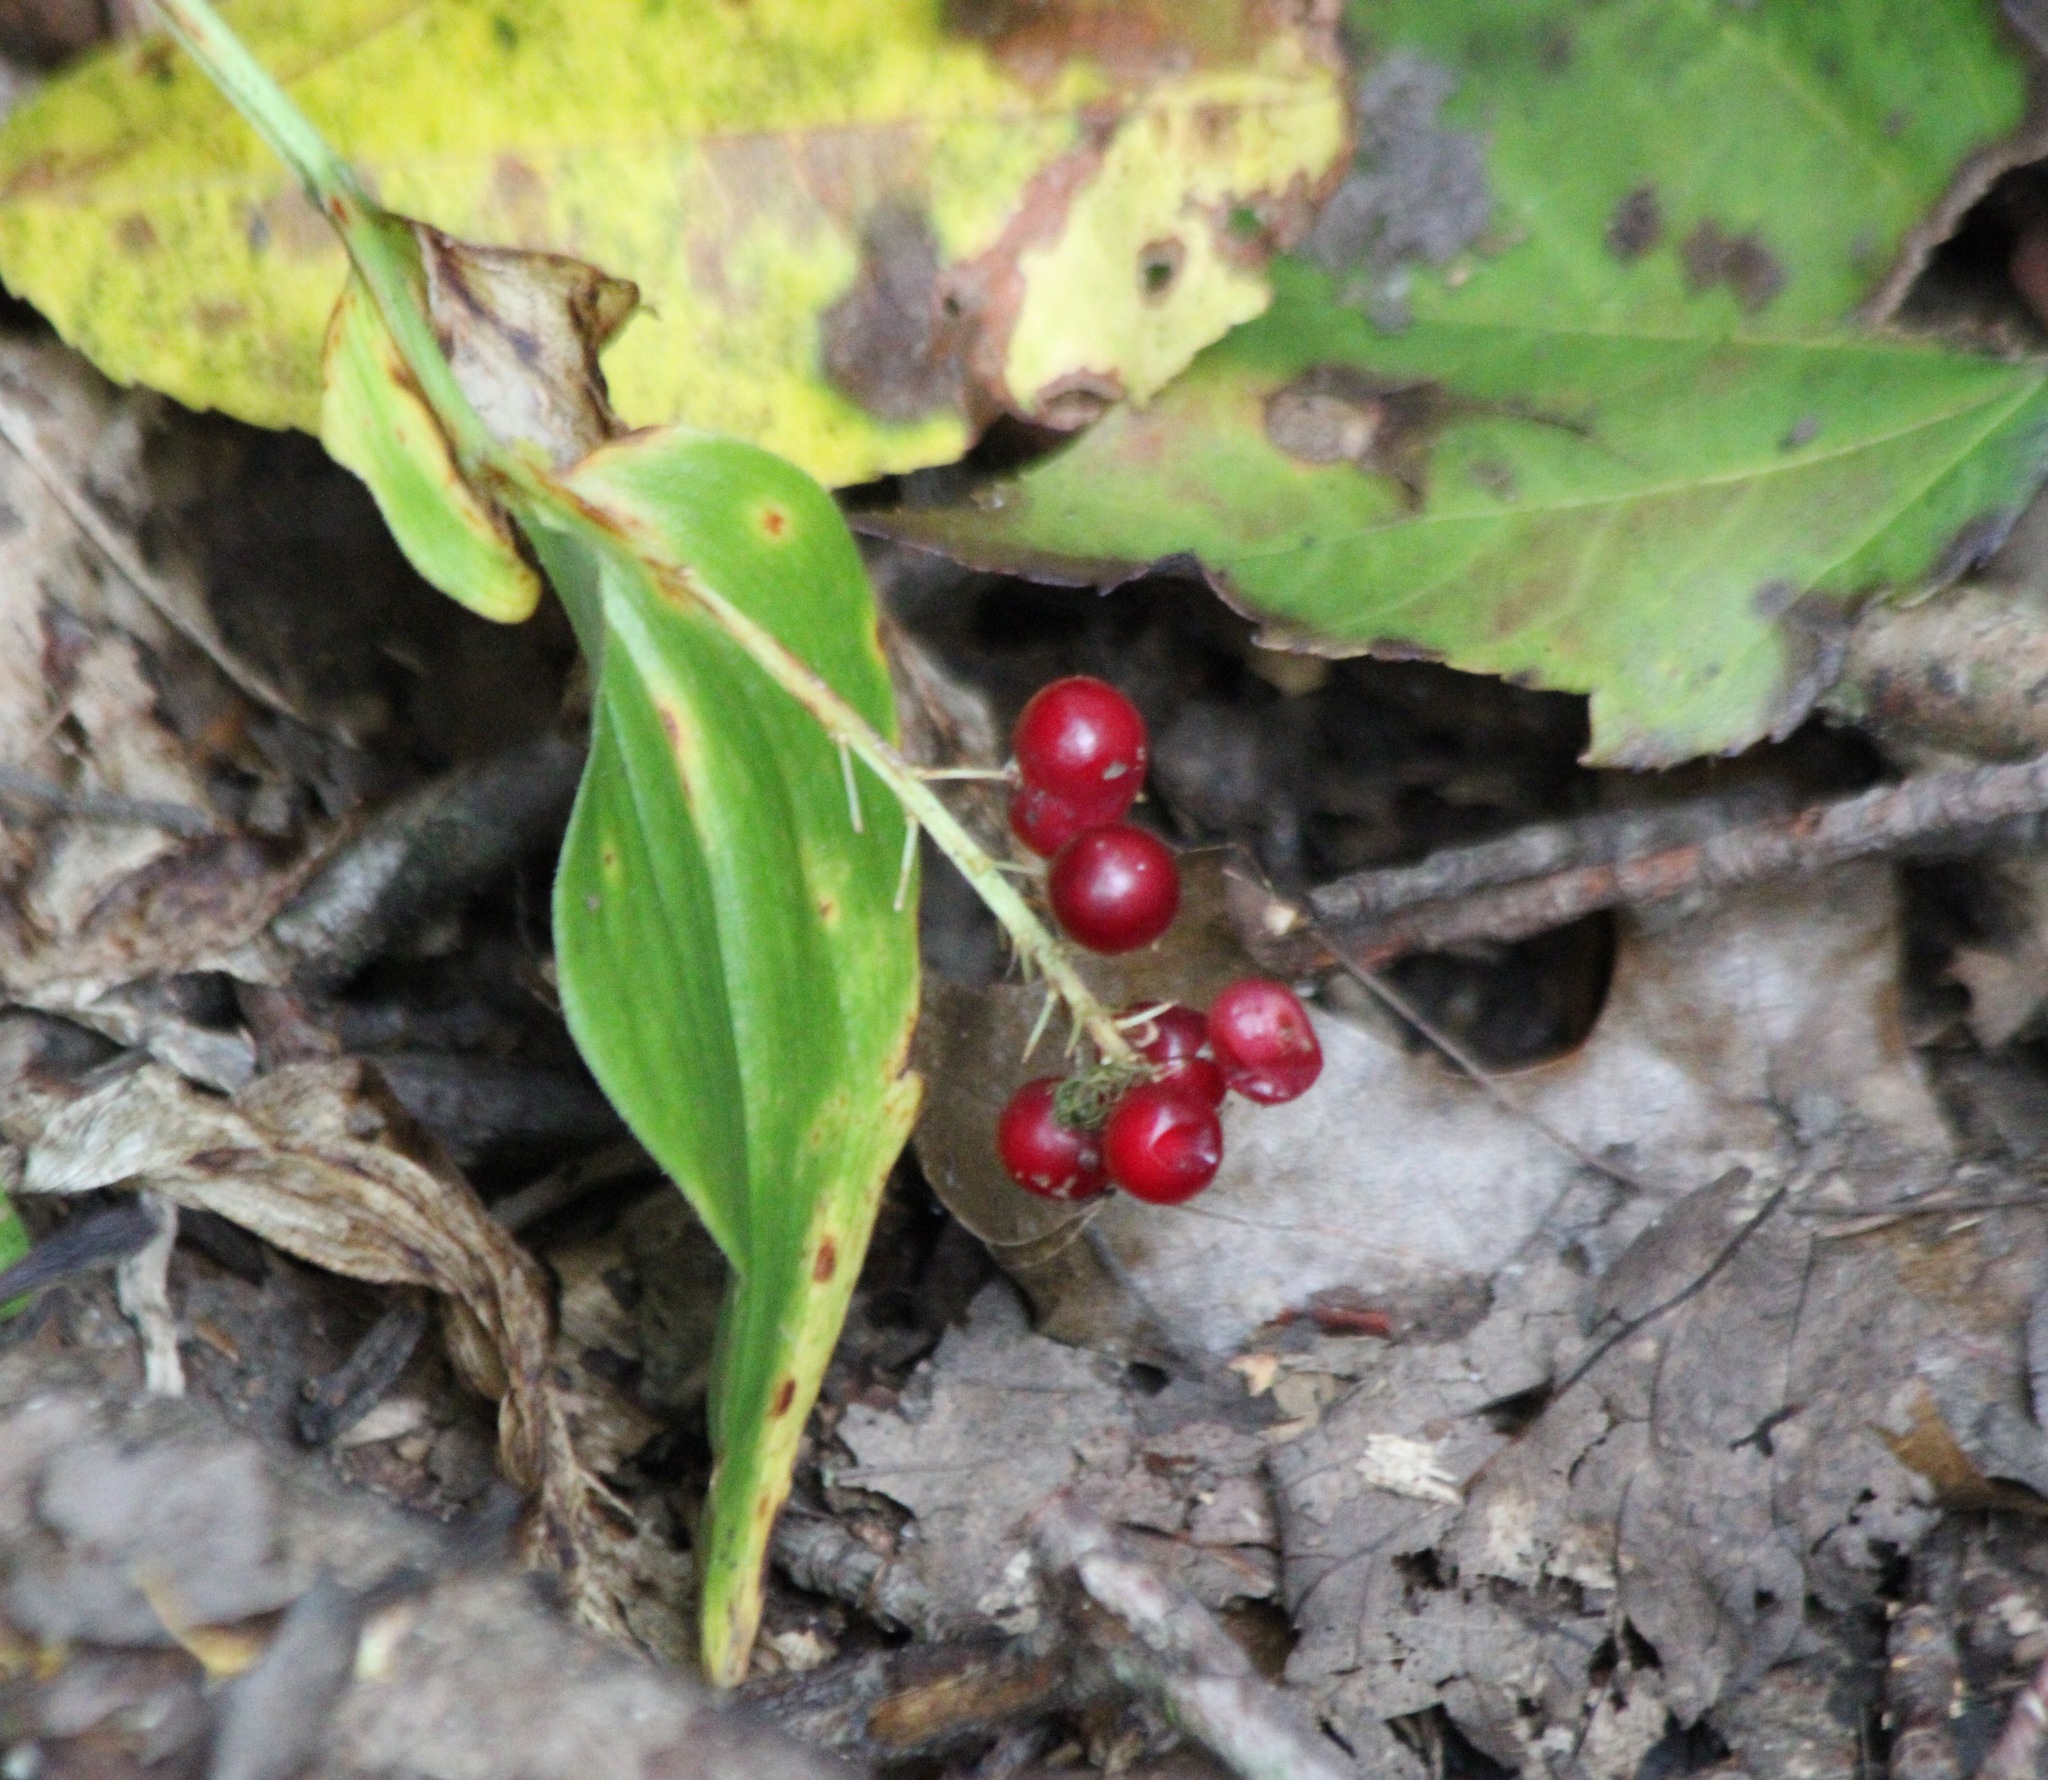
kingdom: Plantae
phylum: Tracheophyta
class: Liliopsida
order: Asparagales
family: Asparagaceae
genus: Maianthemum
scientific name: Maianthemum canadense
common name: False lily-of-the-valley
